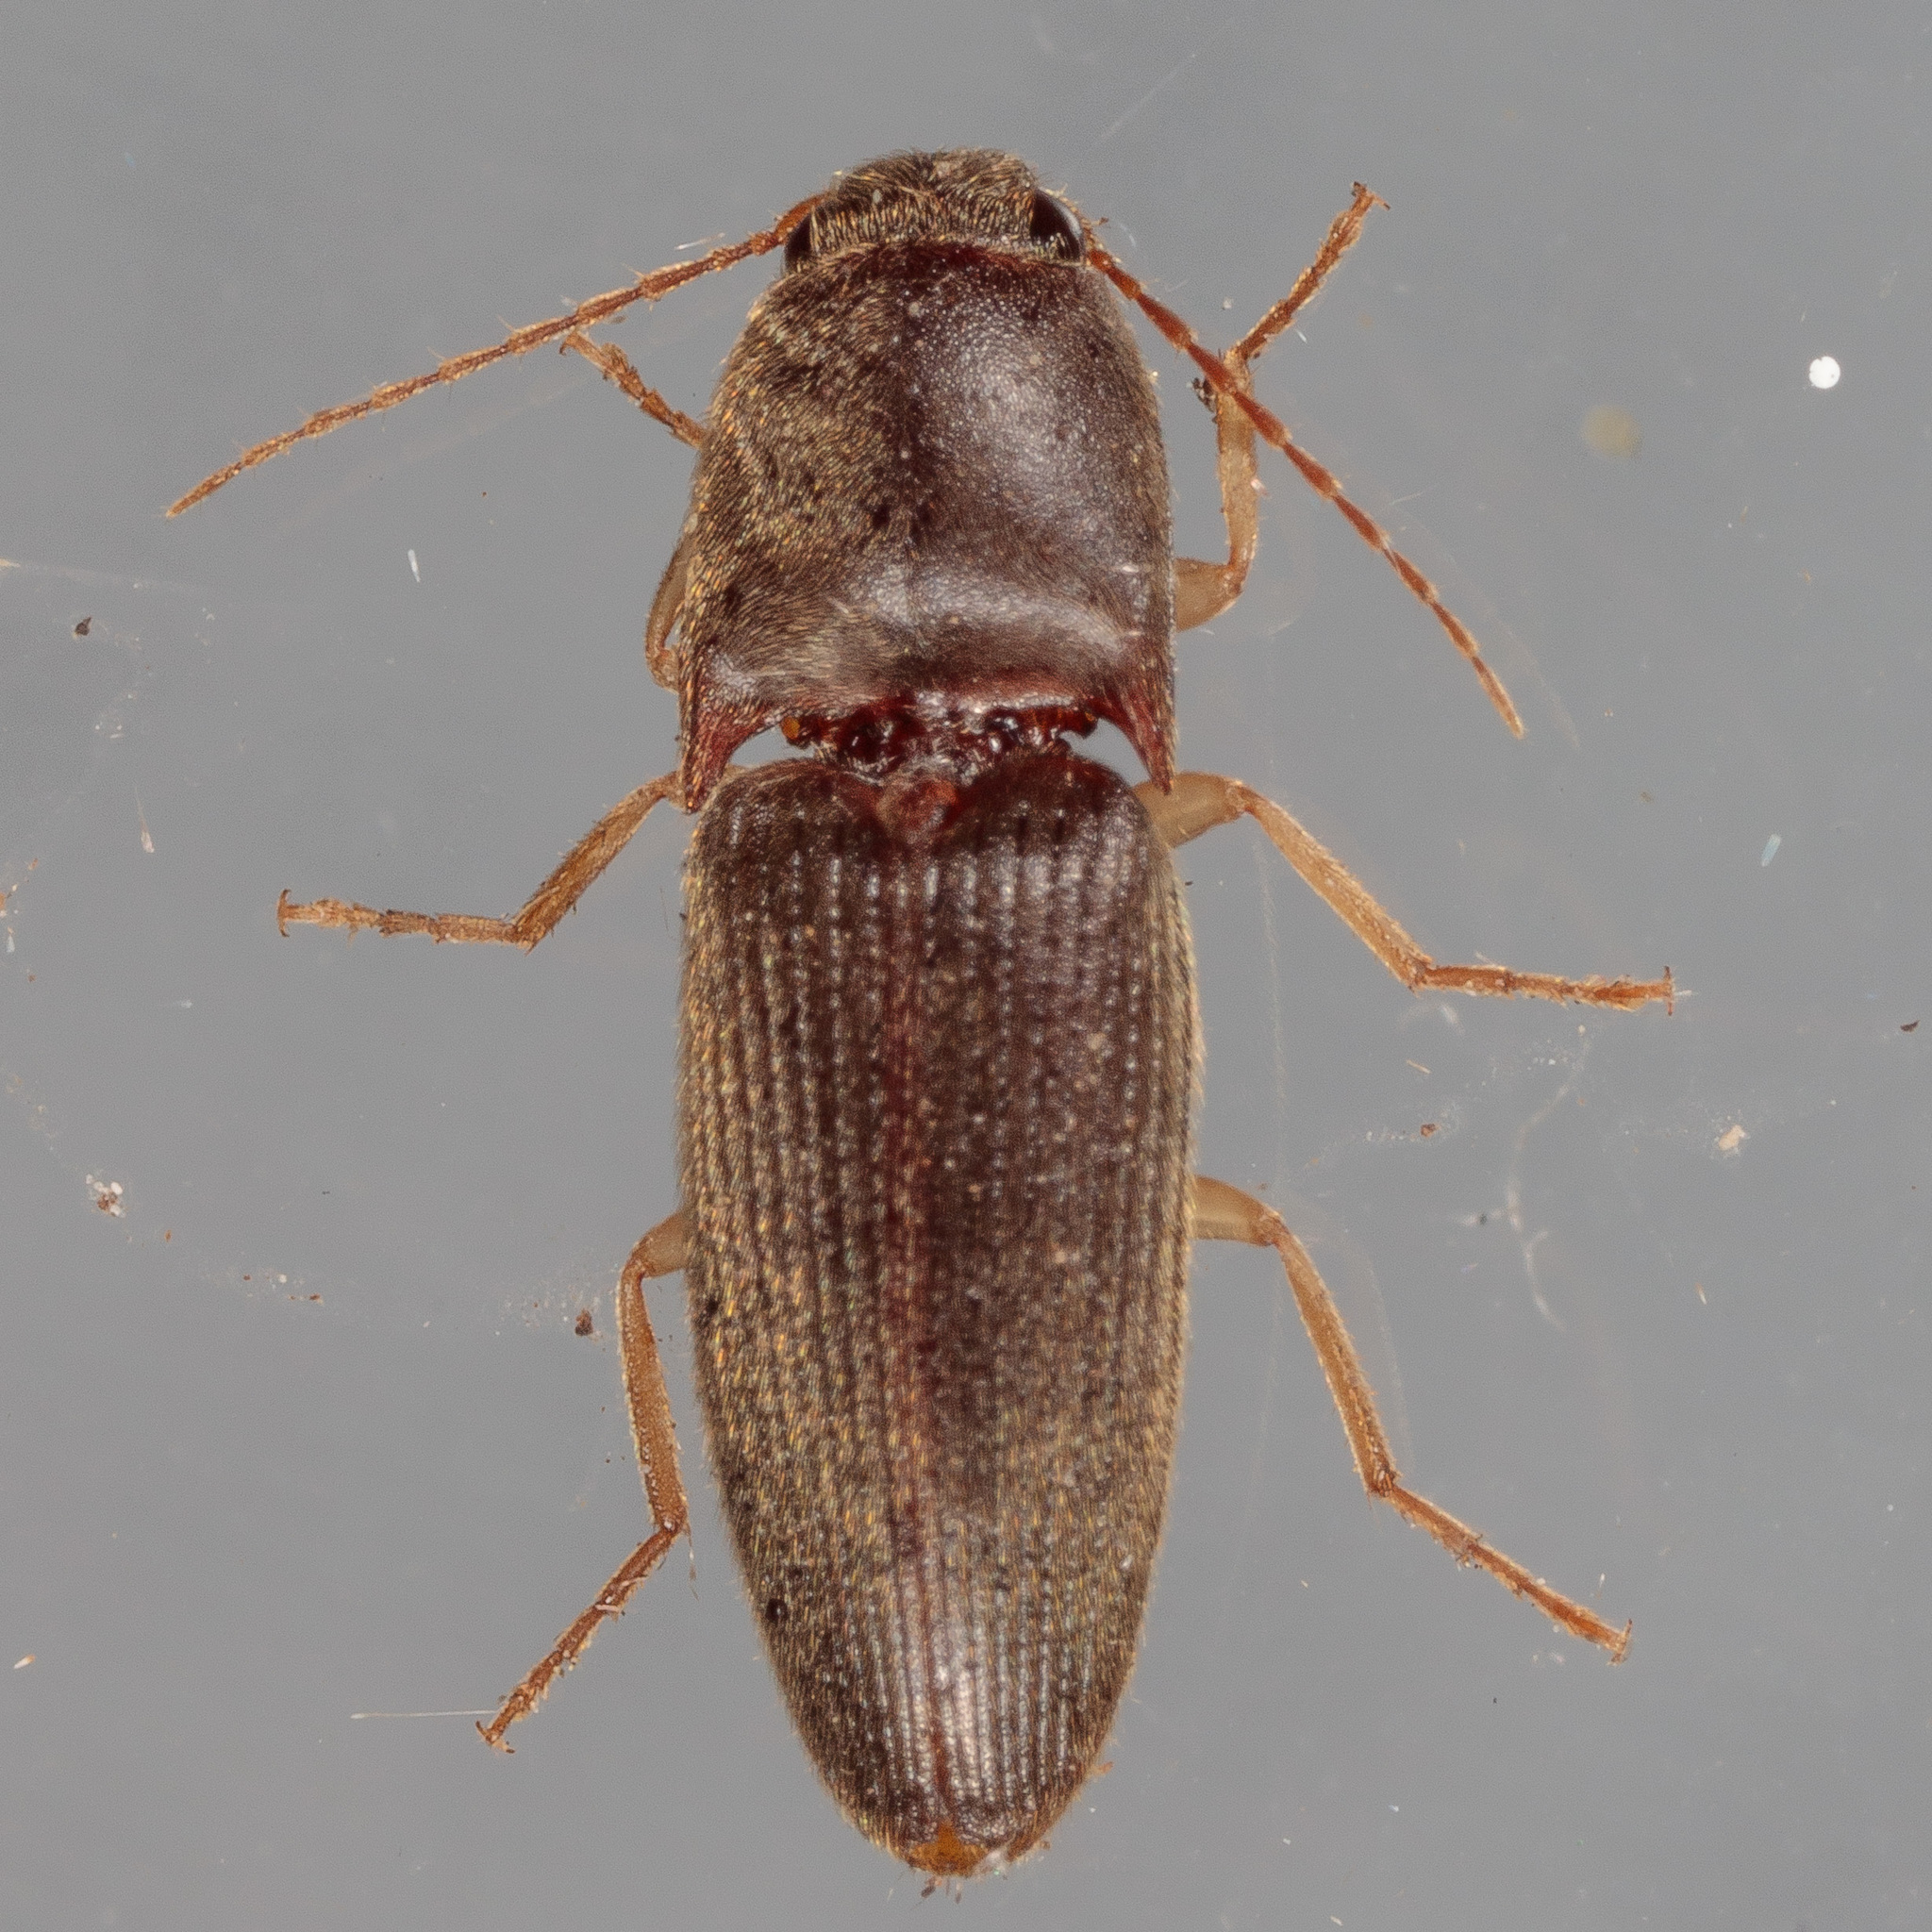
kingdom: Animalia
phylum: Arthropoda
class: Insecta
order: Coleoptera
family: Elateridae
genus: Conoderus
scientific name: Conoderus exsul
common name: Click beetle
